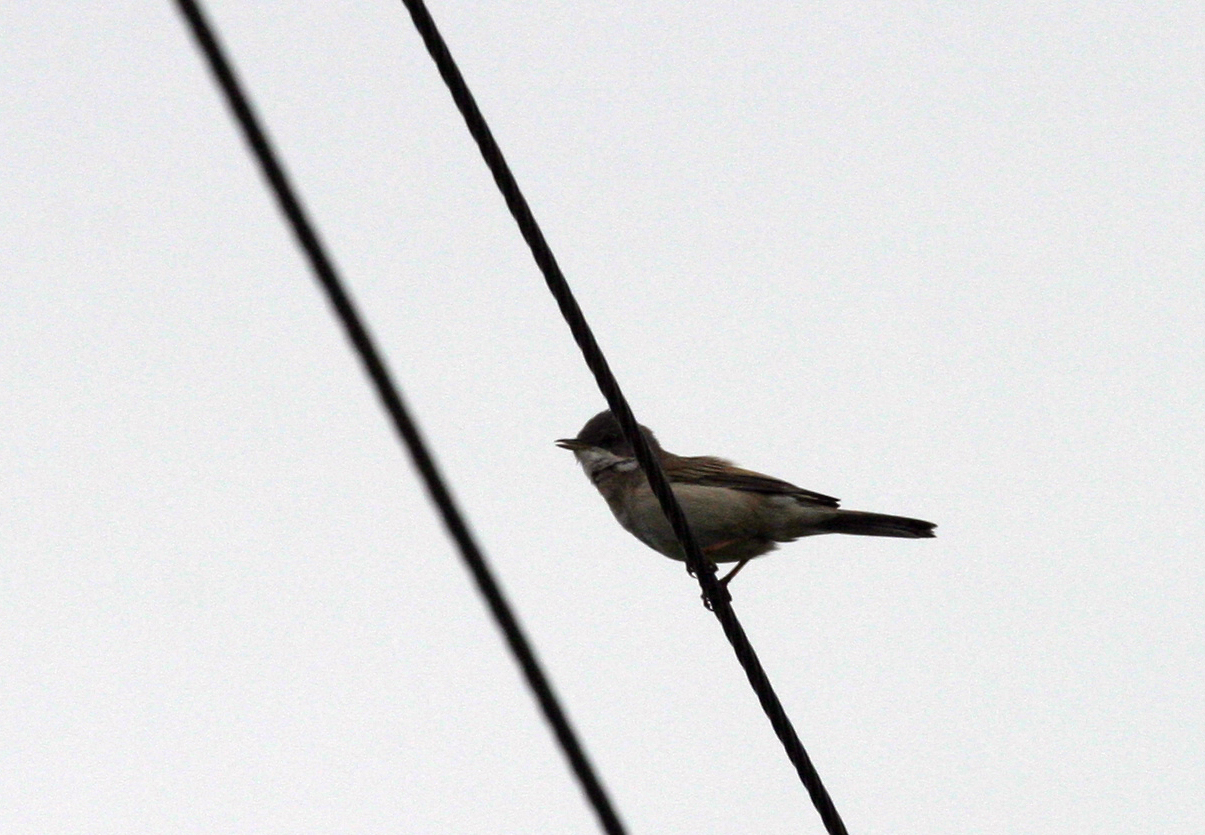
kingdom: Animalia
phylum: Chordata
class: Aves
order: Passeriformes
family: Sylviidae
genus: Sylvia
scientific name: Sylvia communis
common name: Common whitethroat
